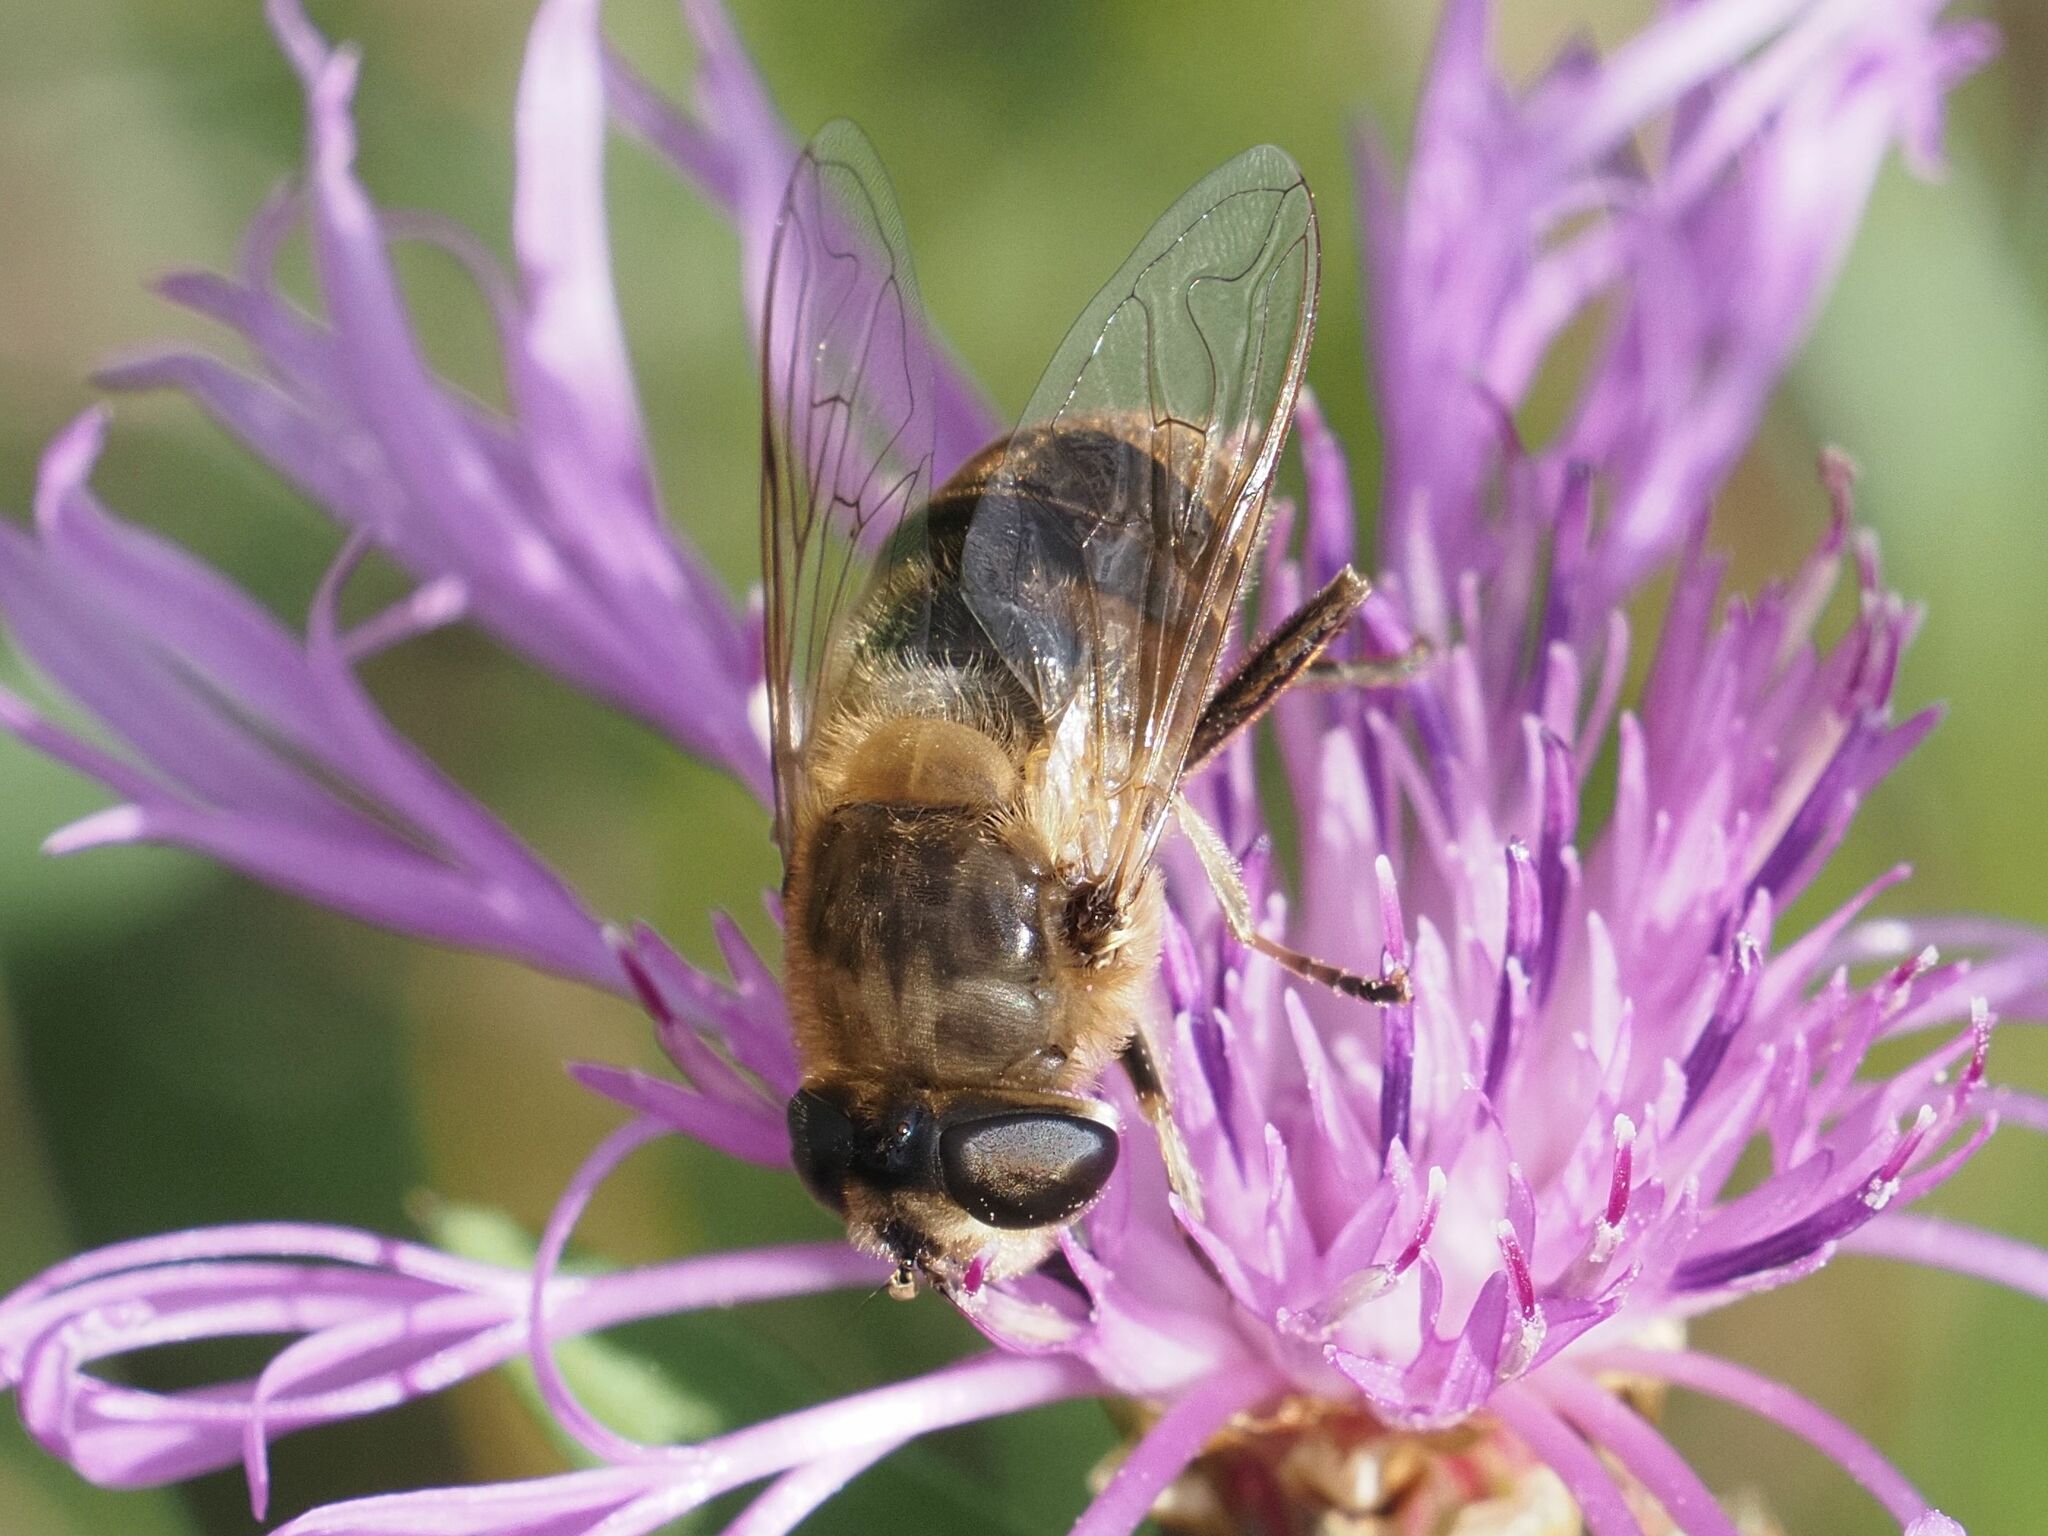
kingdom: Animalia
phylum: Arthropoda
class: Insecta
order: Diptera
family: Syrphidae
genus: Eristalis
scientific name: Eristalis tenax
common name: Drone fly
